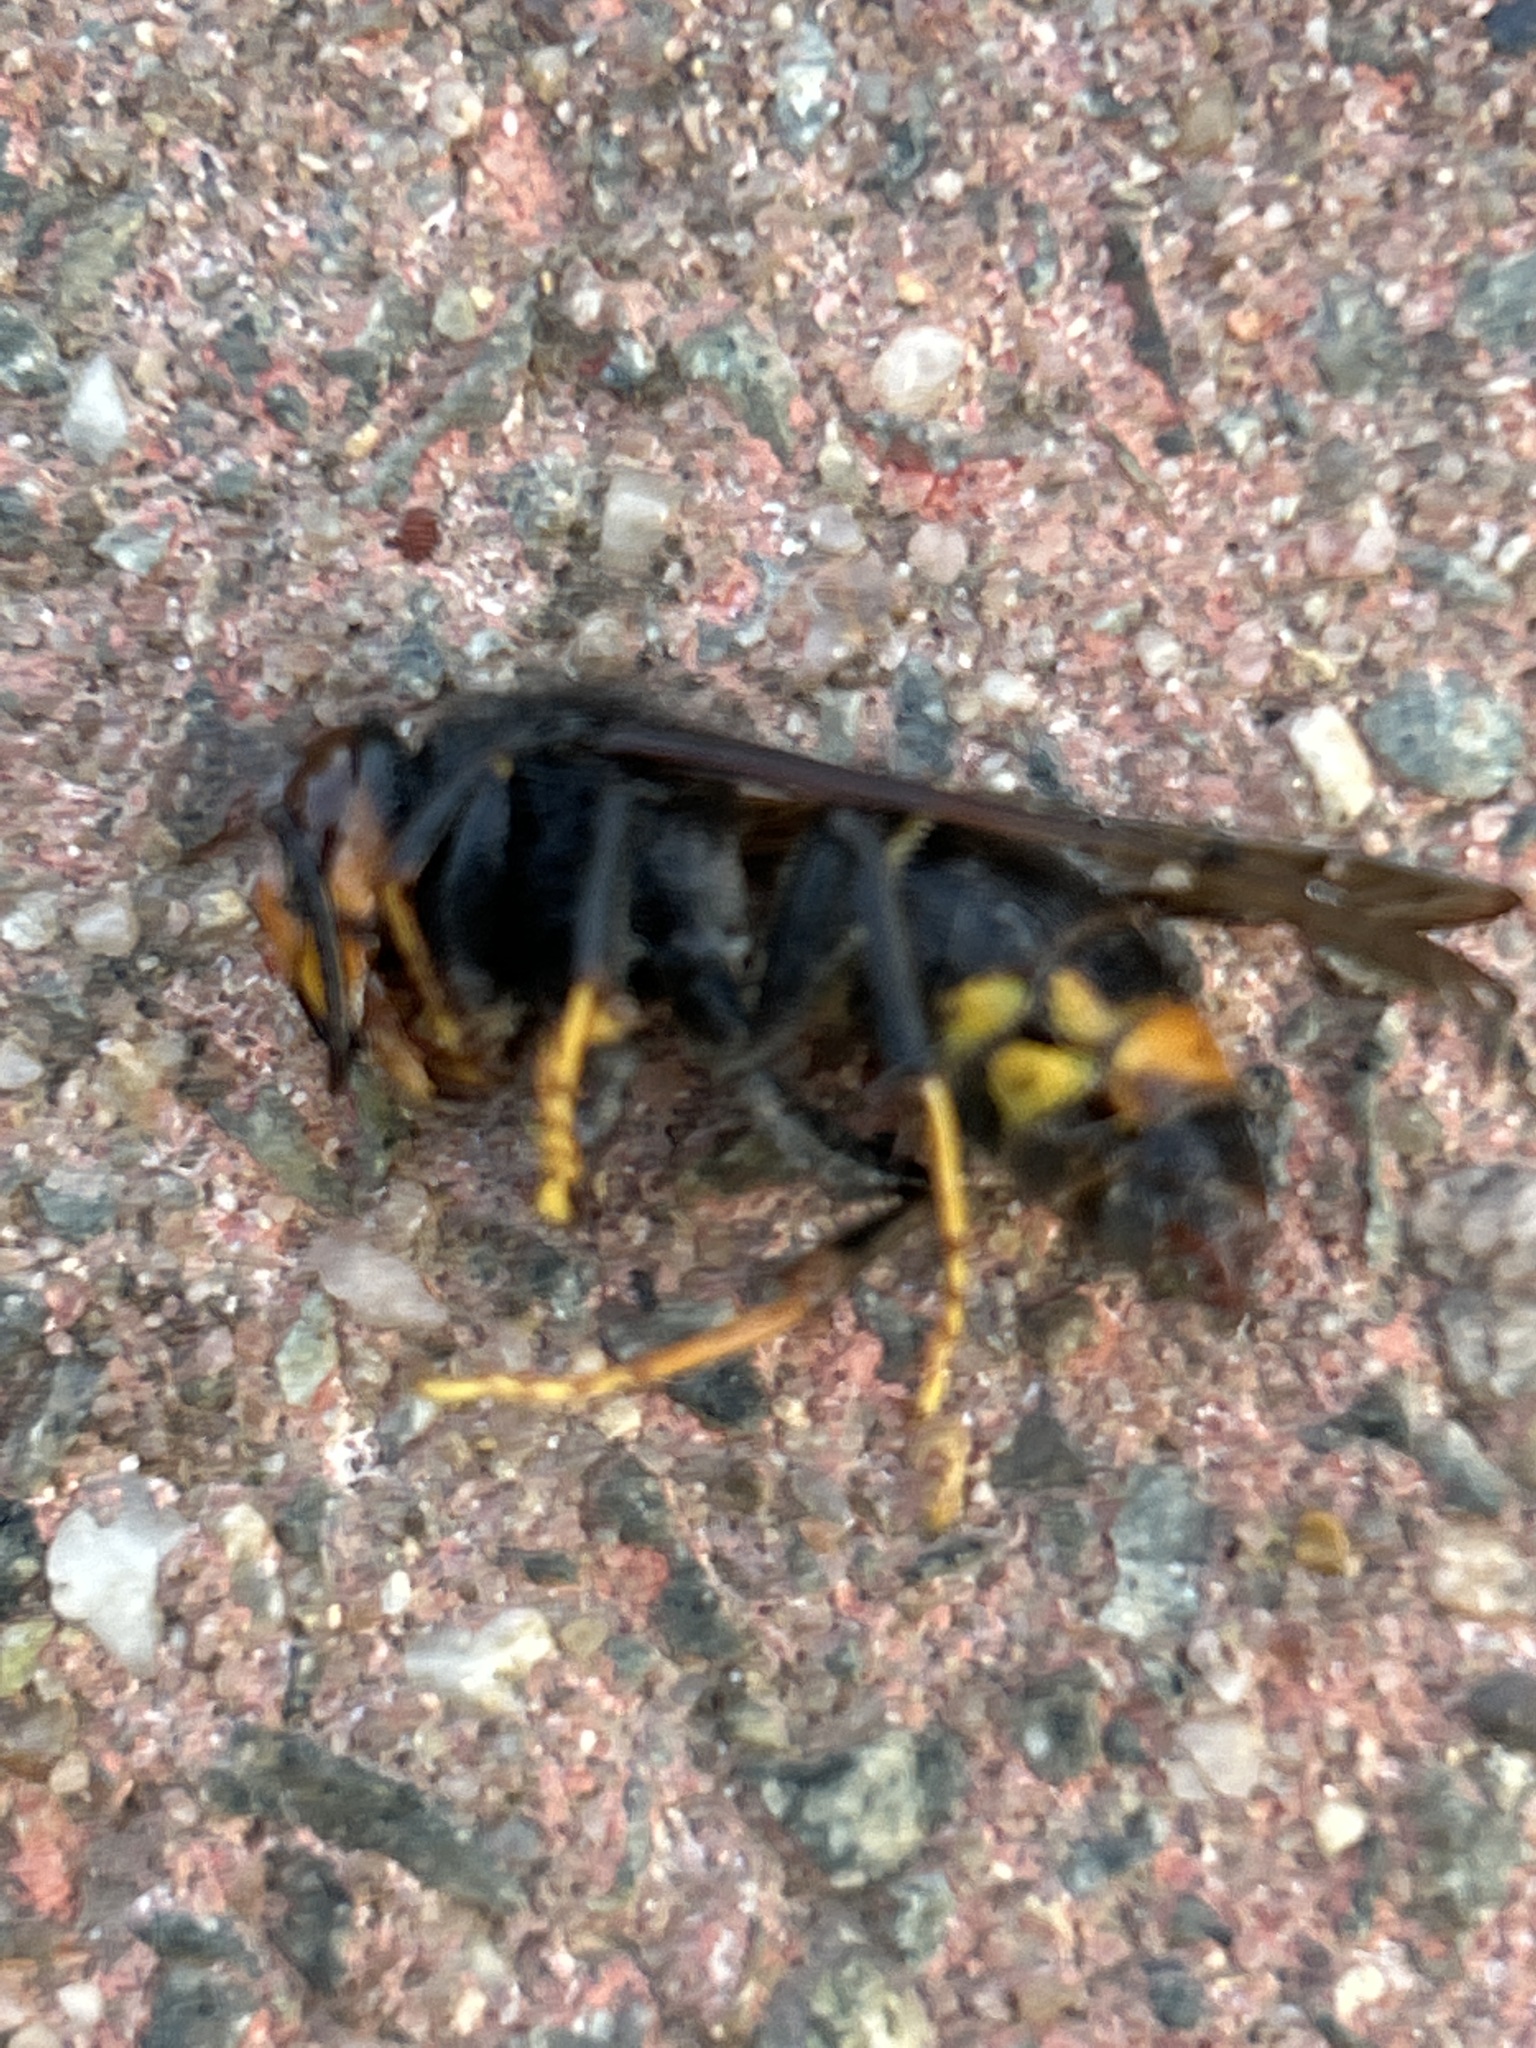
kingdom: Animalia
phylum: Arthropoda
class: Insecta
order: Hymenoptera
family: Vespidae
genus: Vespa
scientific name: Vespa velutina
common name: Asian hornet
